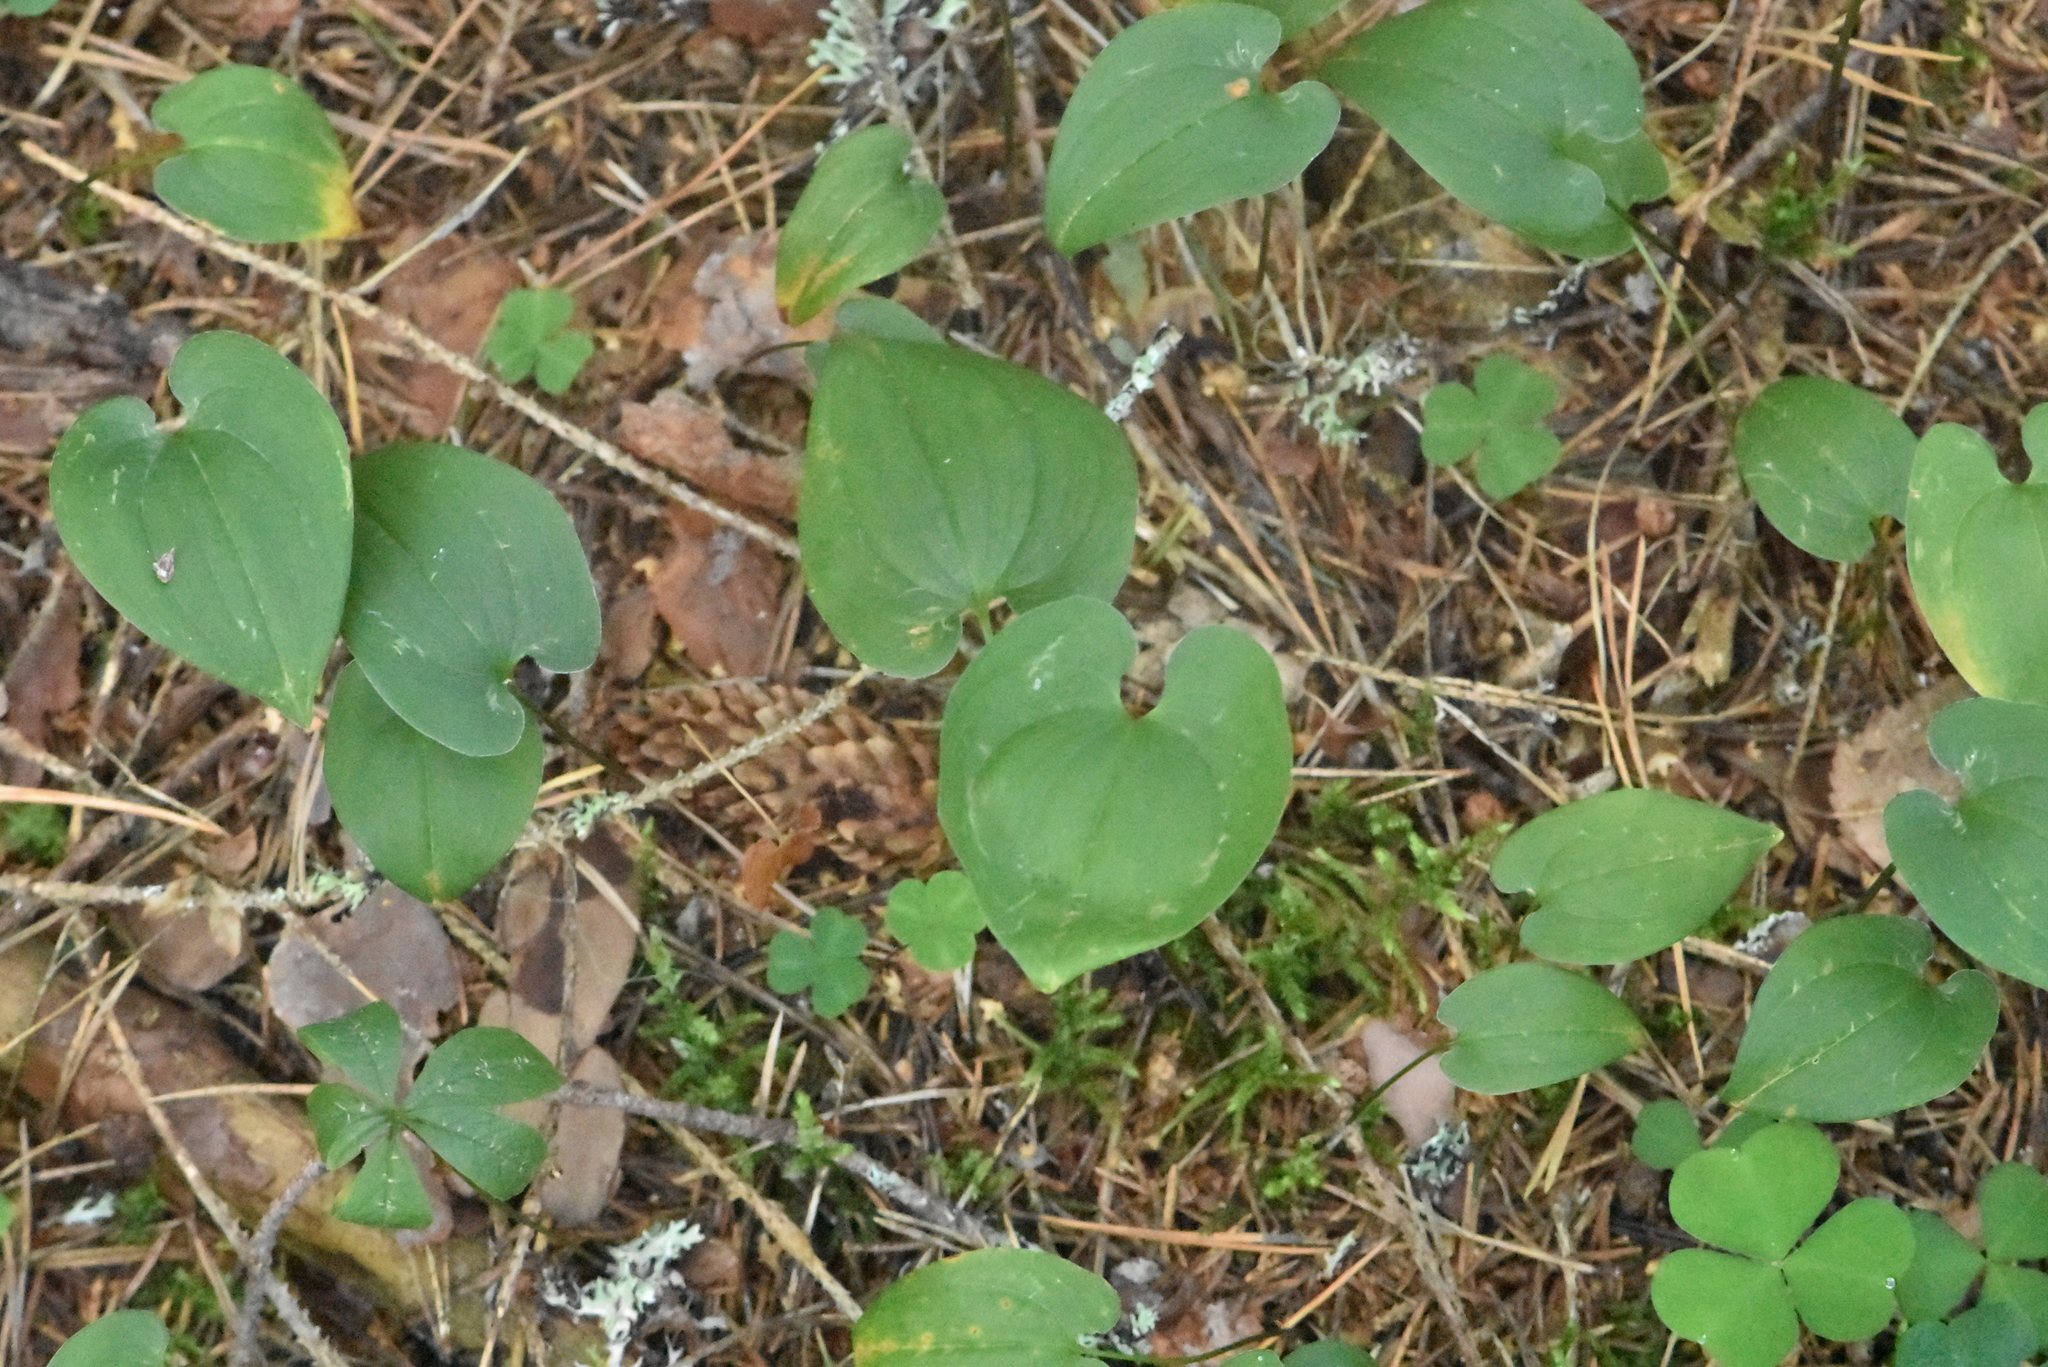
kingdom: Plantae
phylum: Tracheophyta
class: Liliopsida
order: Asparagales
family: Asparagaceae
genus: Maianthemum
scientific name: Maianthemum bifolium
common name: May lily
